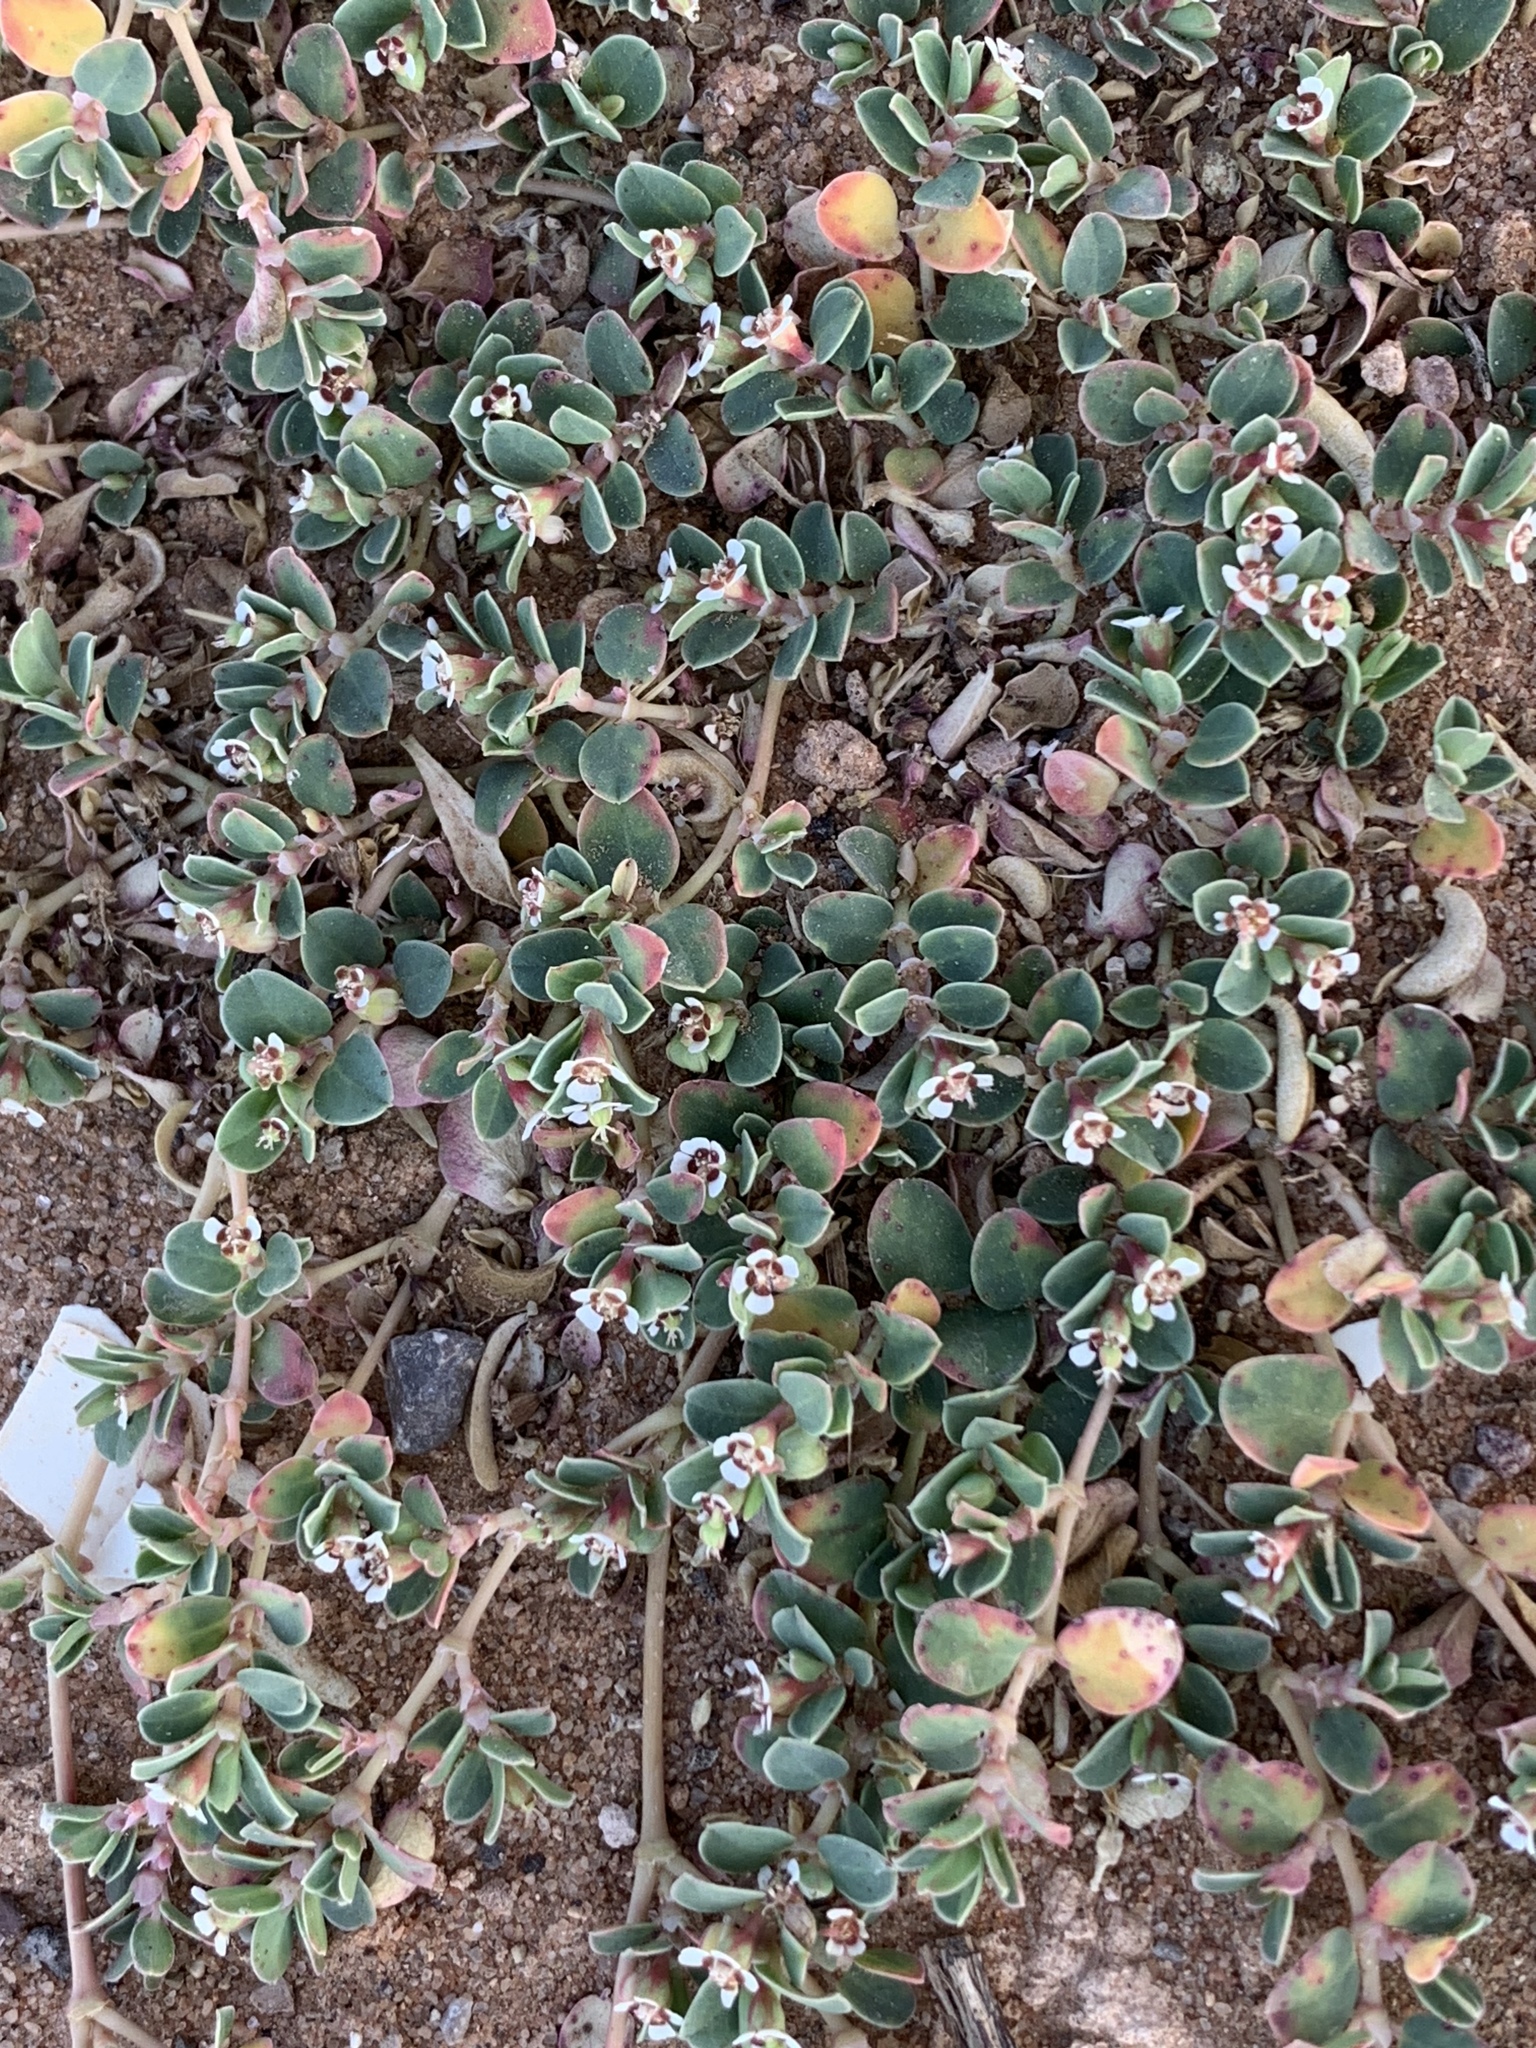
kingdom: Plantae
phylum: Tracheophyta
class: Magnoliopsida
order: Malpighiales
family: Euphorbiaceae
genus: Euphorbia
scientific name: Euphorbia albomarginata
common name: Whitemargin sandmat
